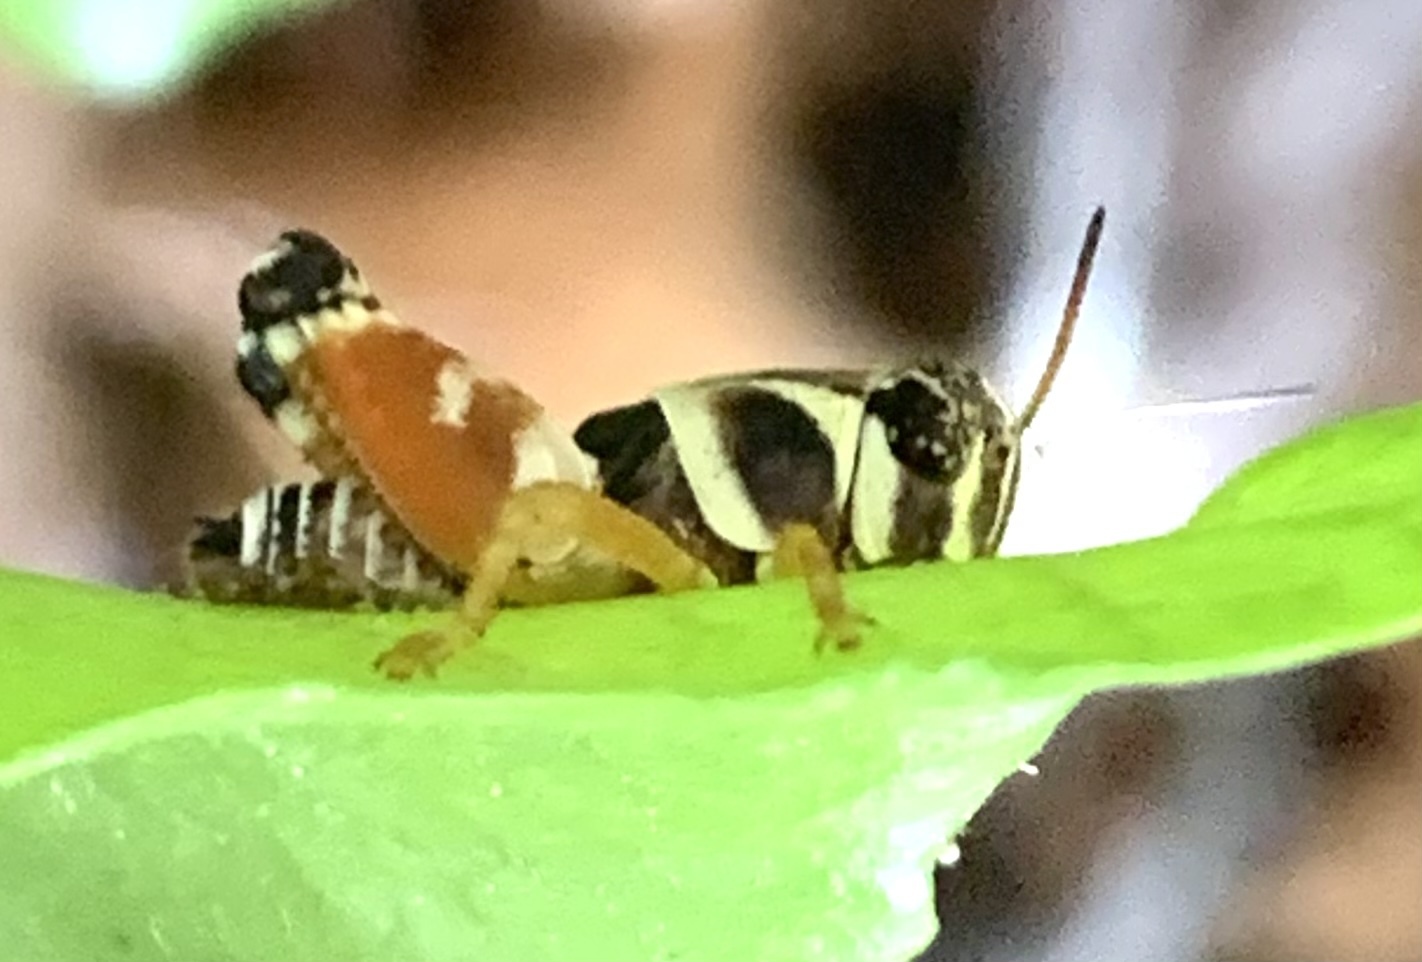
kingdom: Animalia
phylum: Arthropoda
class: Insecta
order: Orthoptera
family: Acrididae
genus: Aidemona
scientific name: Aidemona azteca
